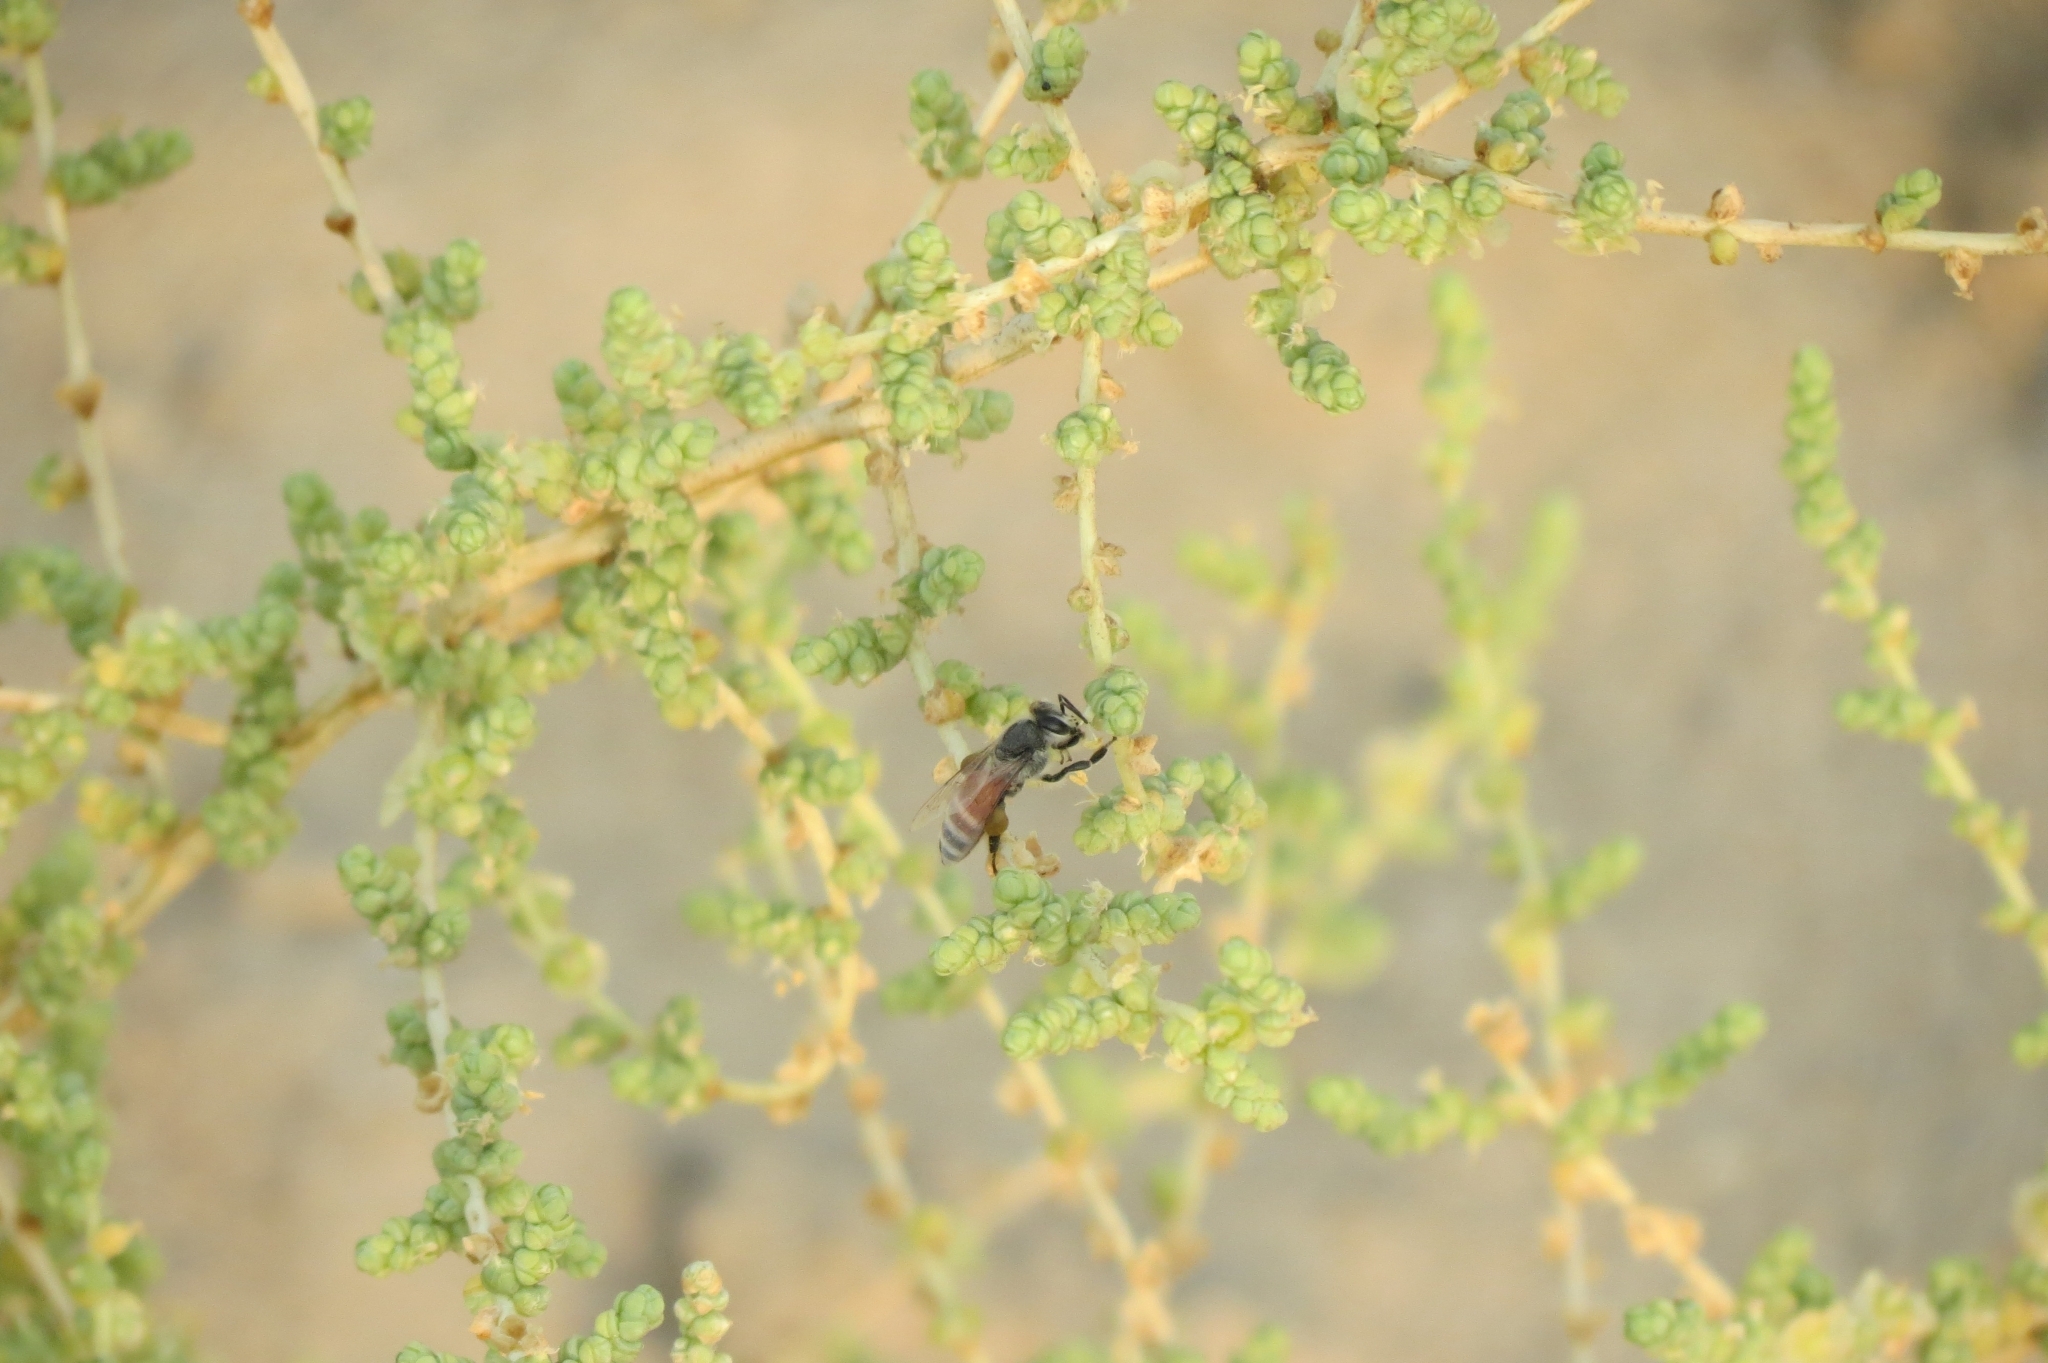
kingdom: Animalia
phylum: Arthropoda
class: Insecta
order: Hymenoptera
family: Apidae
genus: Apis
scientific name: Apis florea
